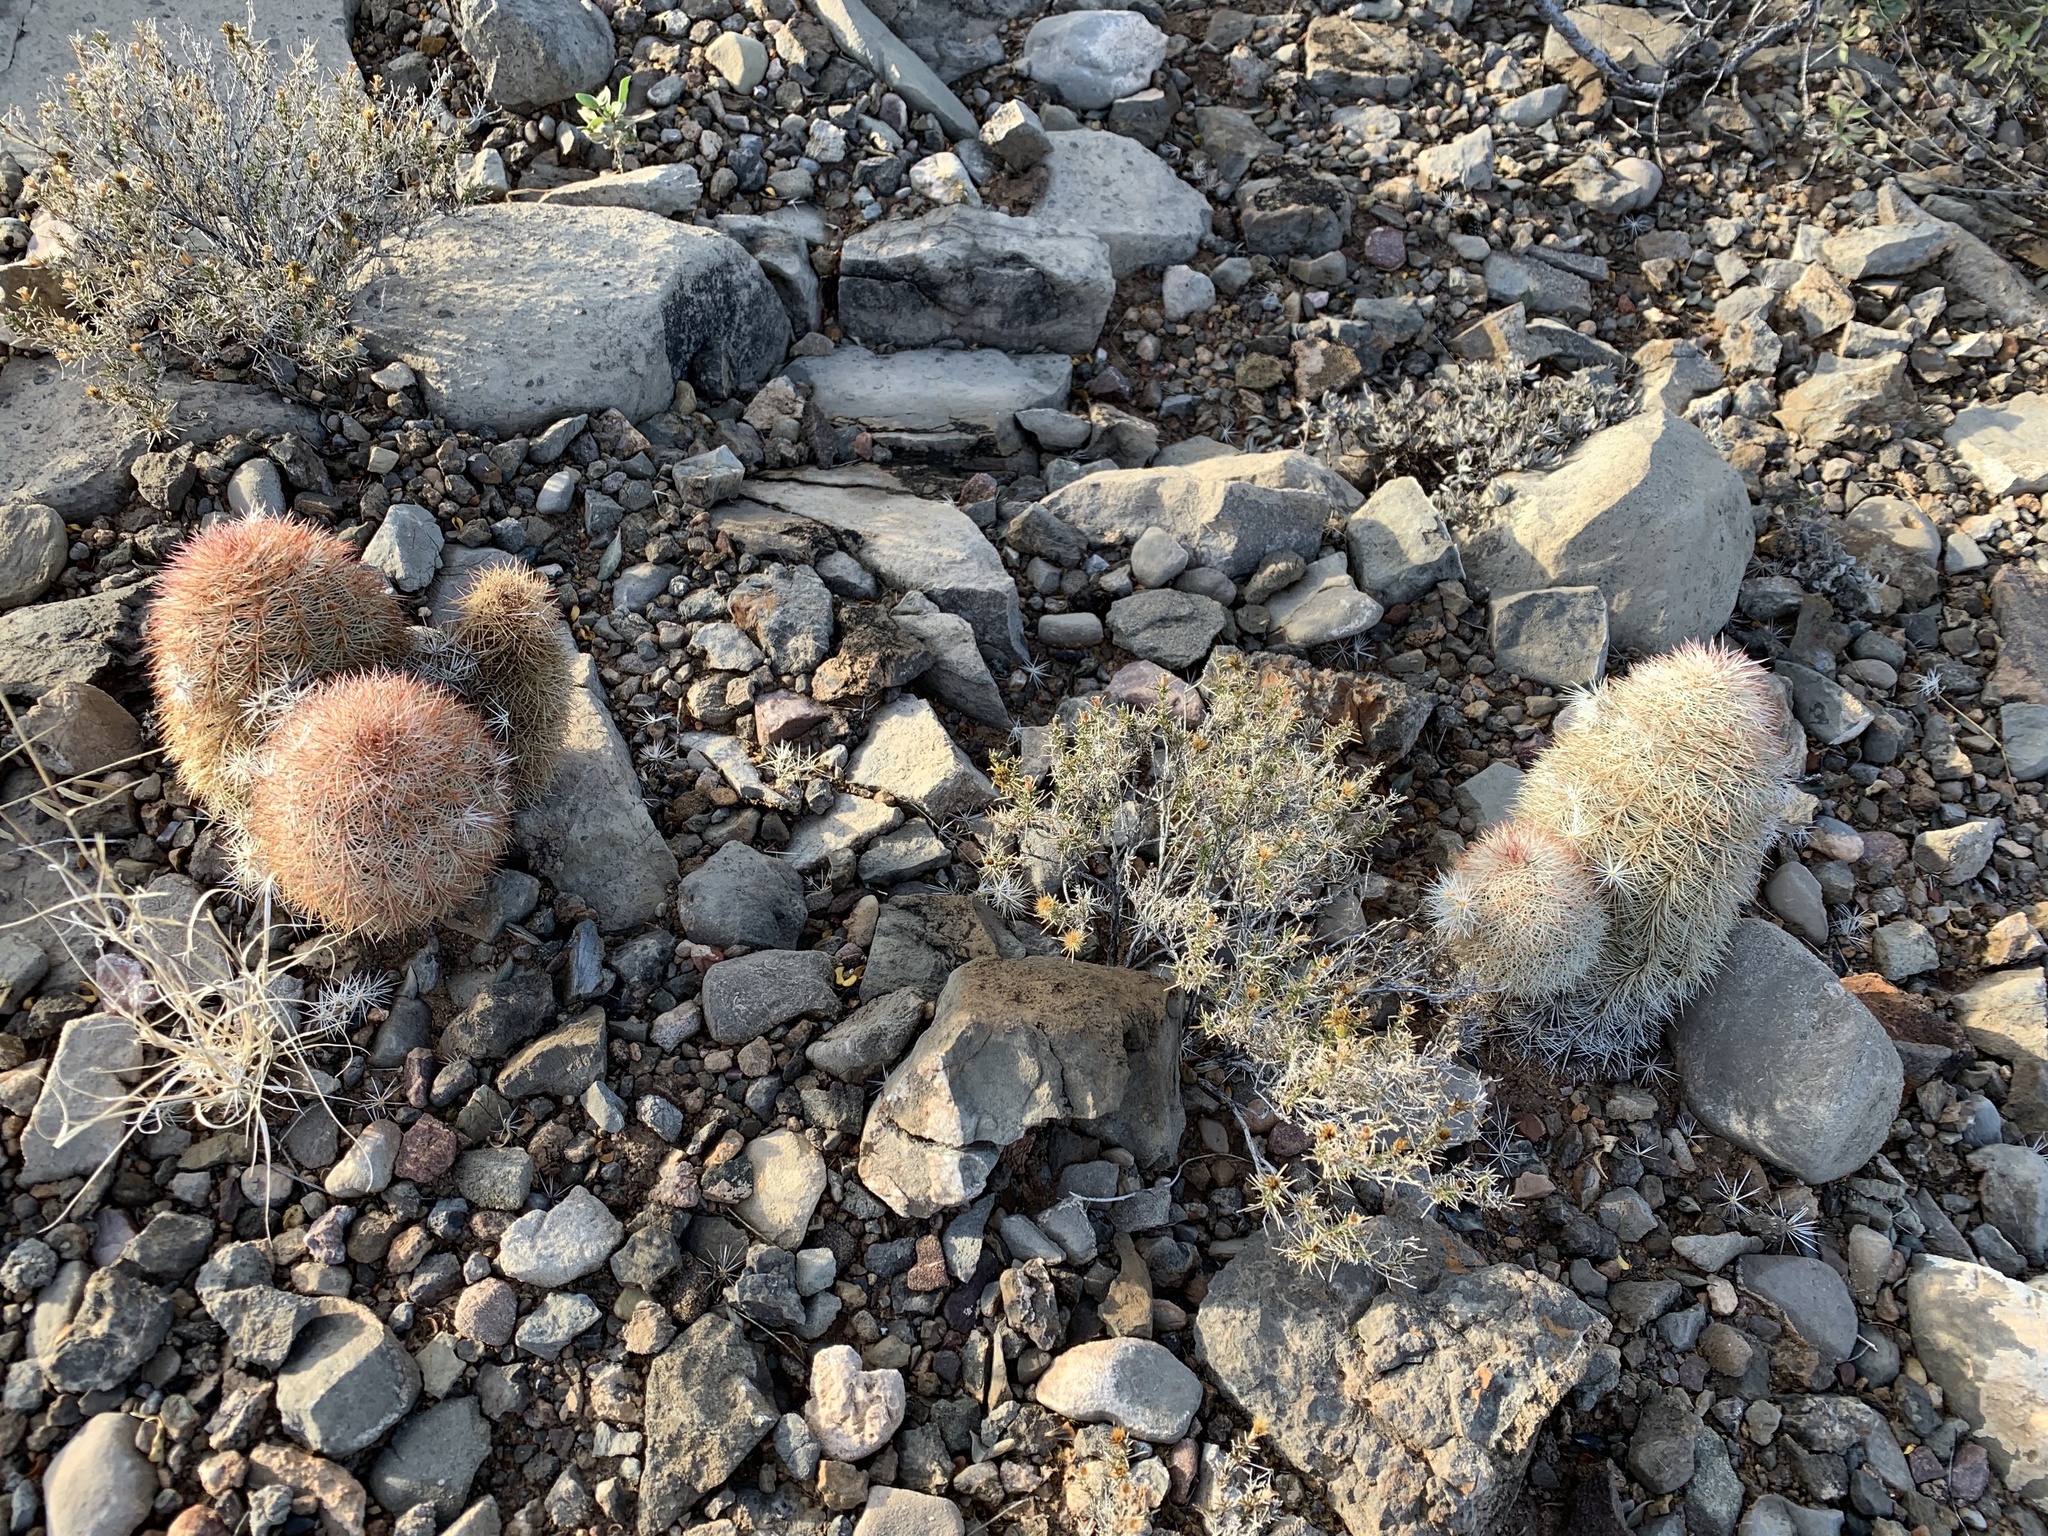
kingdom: Plantae
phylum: Tracheophyta
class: Magnoliopsida
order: Caryophyllales
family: Cactaceae
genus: Echinocereus
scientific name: Echinocereus dasyacanthus
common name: Spiny hedgehog cactus
